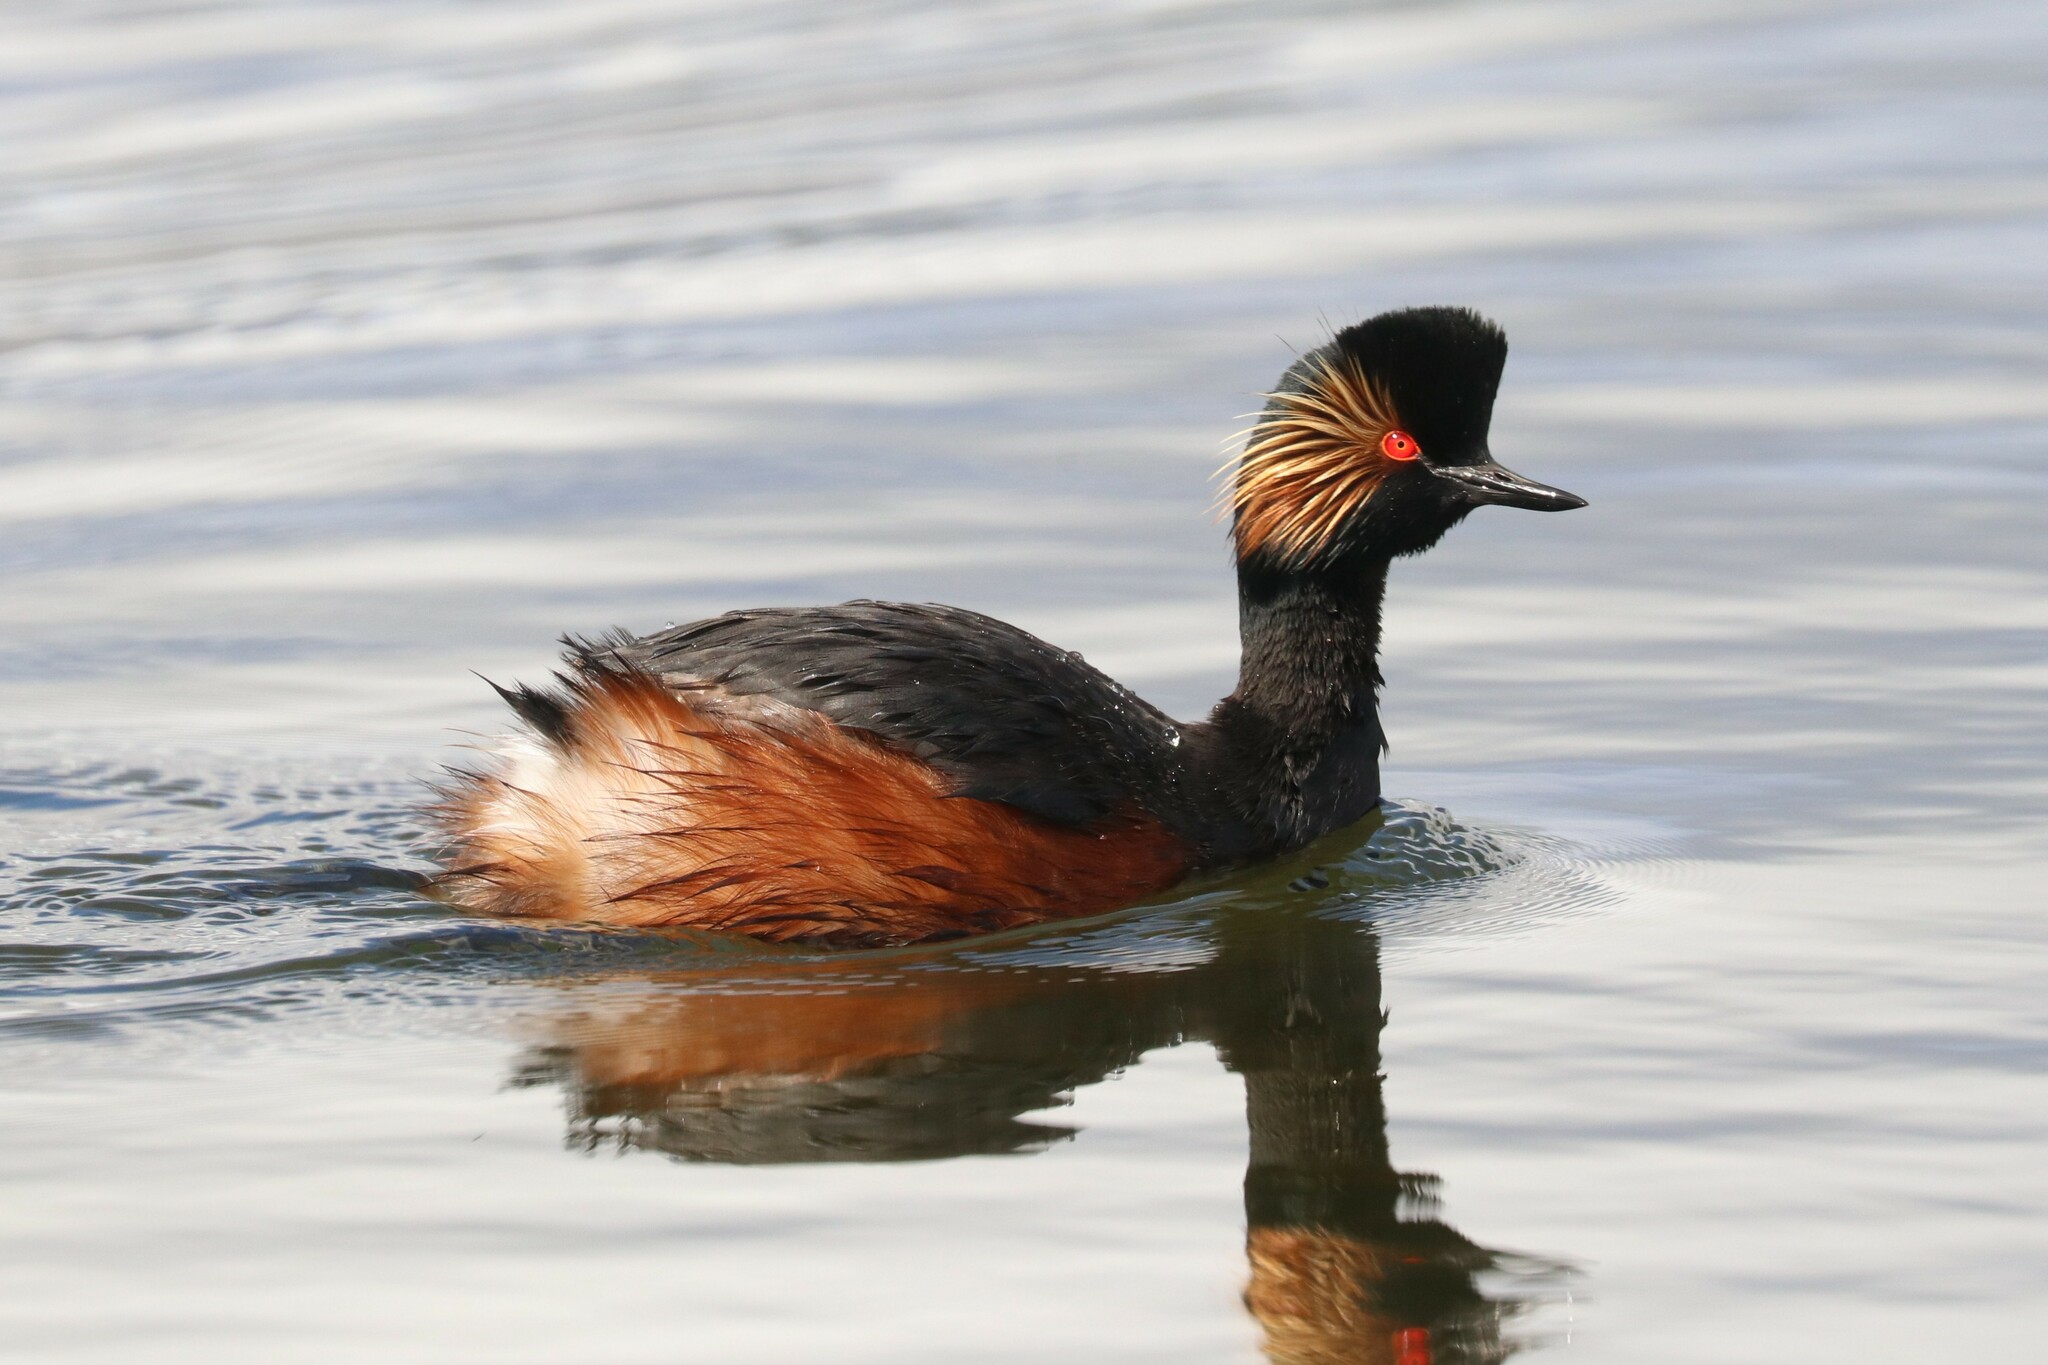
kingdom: Animalia
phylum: Chordata
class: Aves
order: Podicipediformes
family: Podicipedidae
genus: Podiceps
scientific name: Podiceps nigricollis
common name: Black-necked grebe
